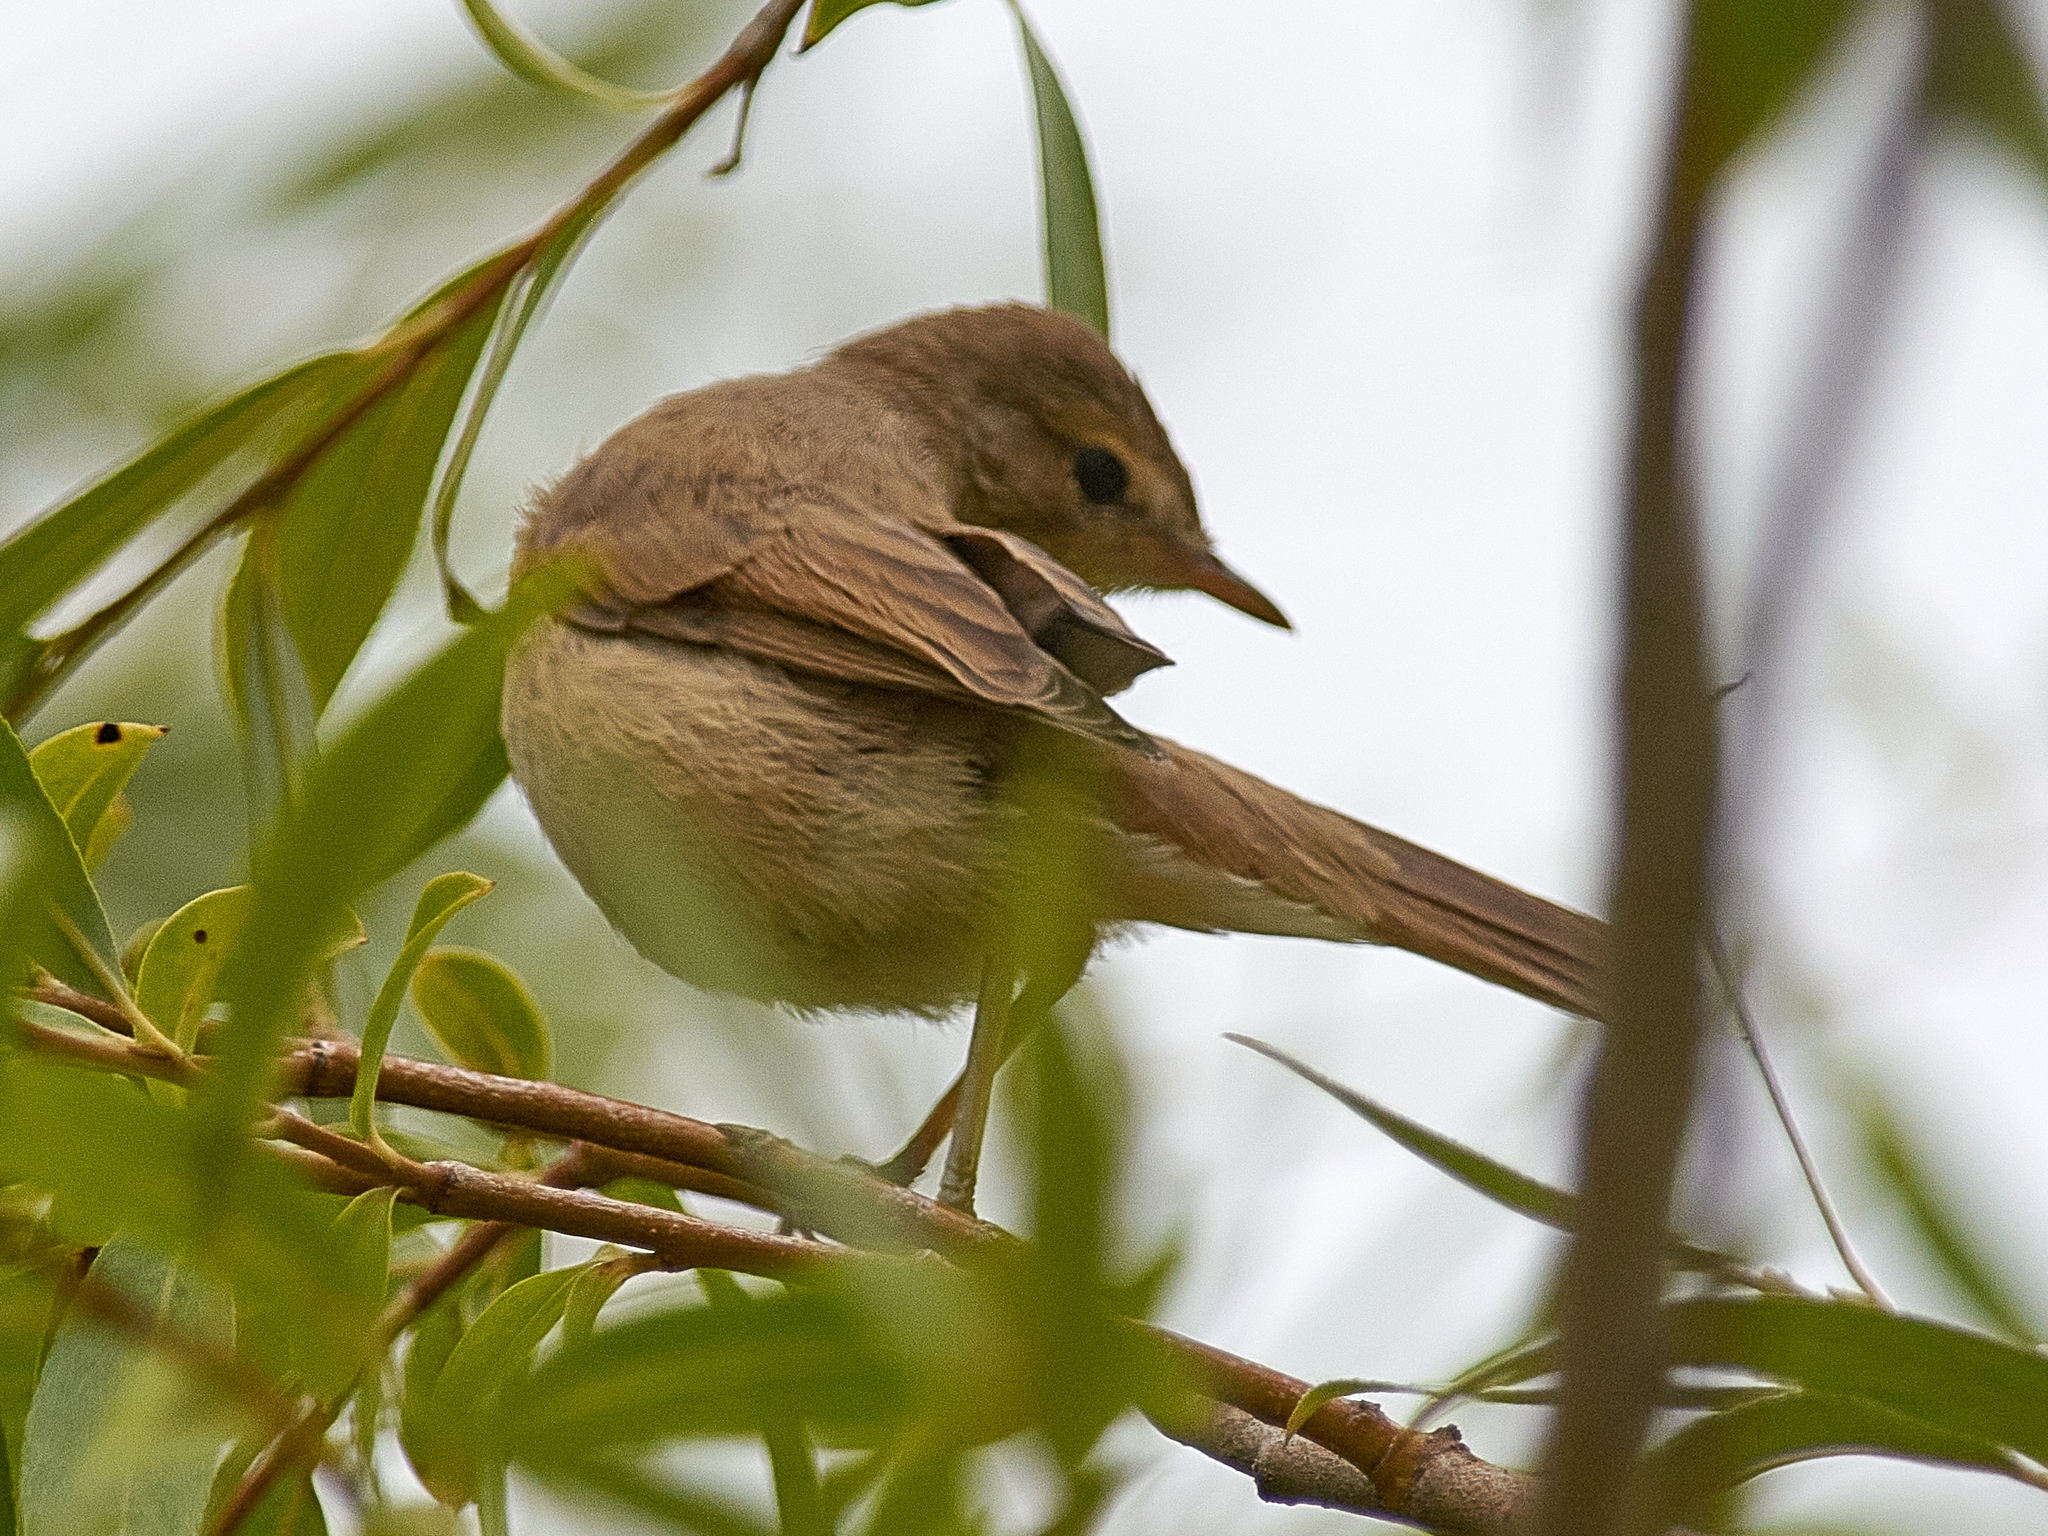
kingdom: Animalia
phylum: Chordata
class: Aves
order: Passeriformes
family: Acrocephalidae
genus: Iduna
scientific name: Iduna caligata
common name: Booted warbler
